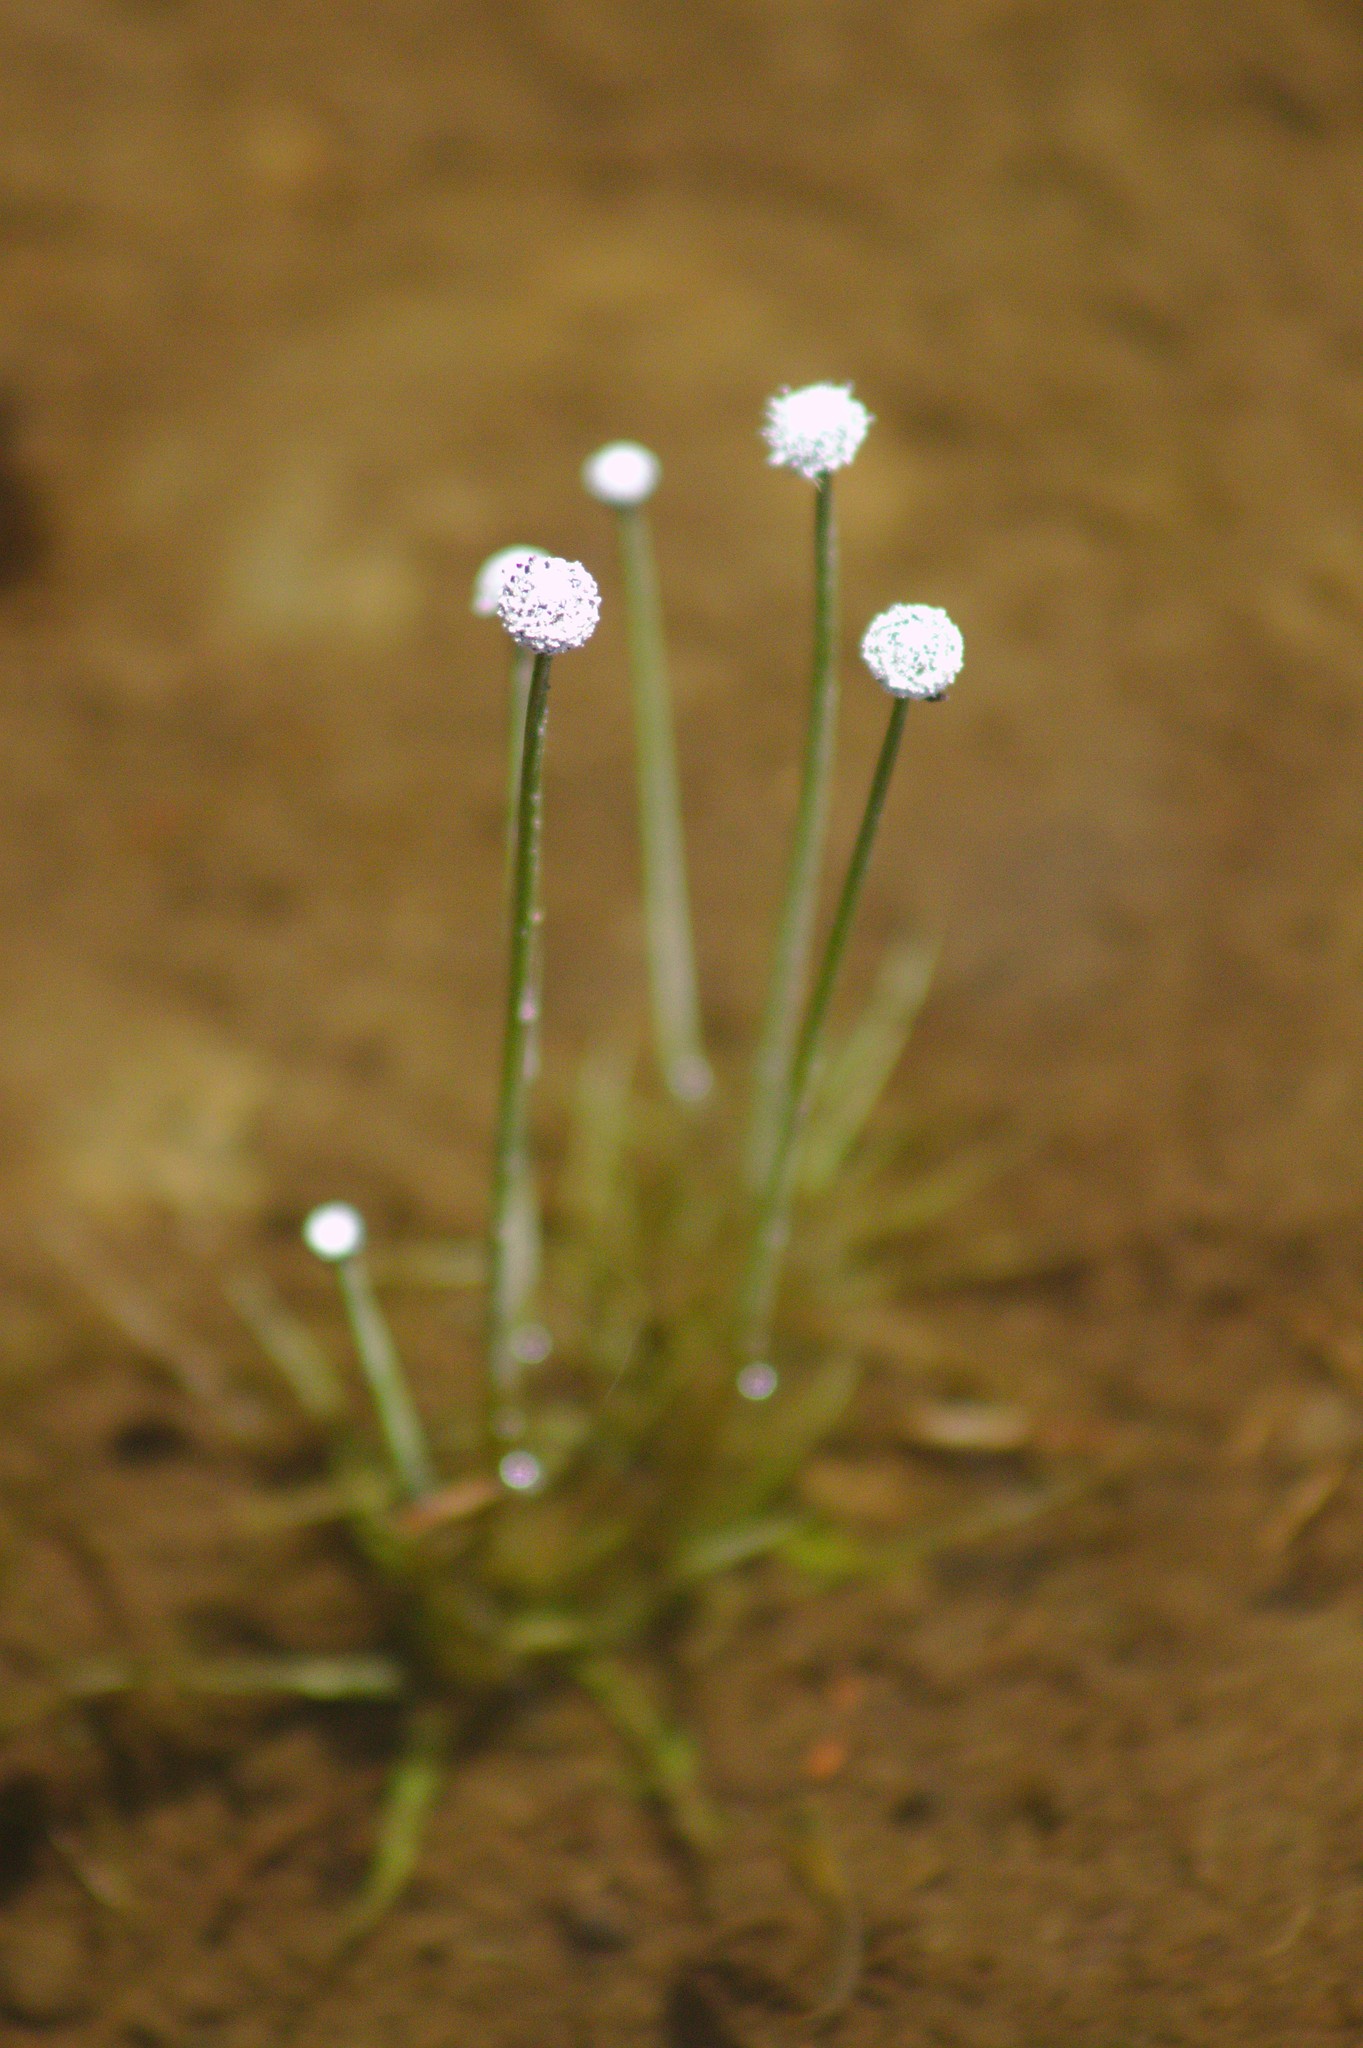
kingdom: Plantae
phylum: Tracheophyta
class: Liliopsida
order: Poales
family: Eriocaulaceae
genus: Eriocaulon
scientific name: Eriocaulon aquaticum
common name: Pipewort
